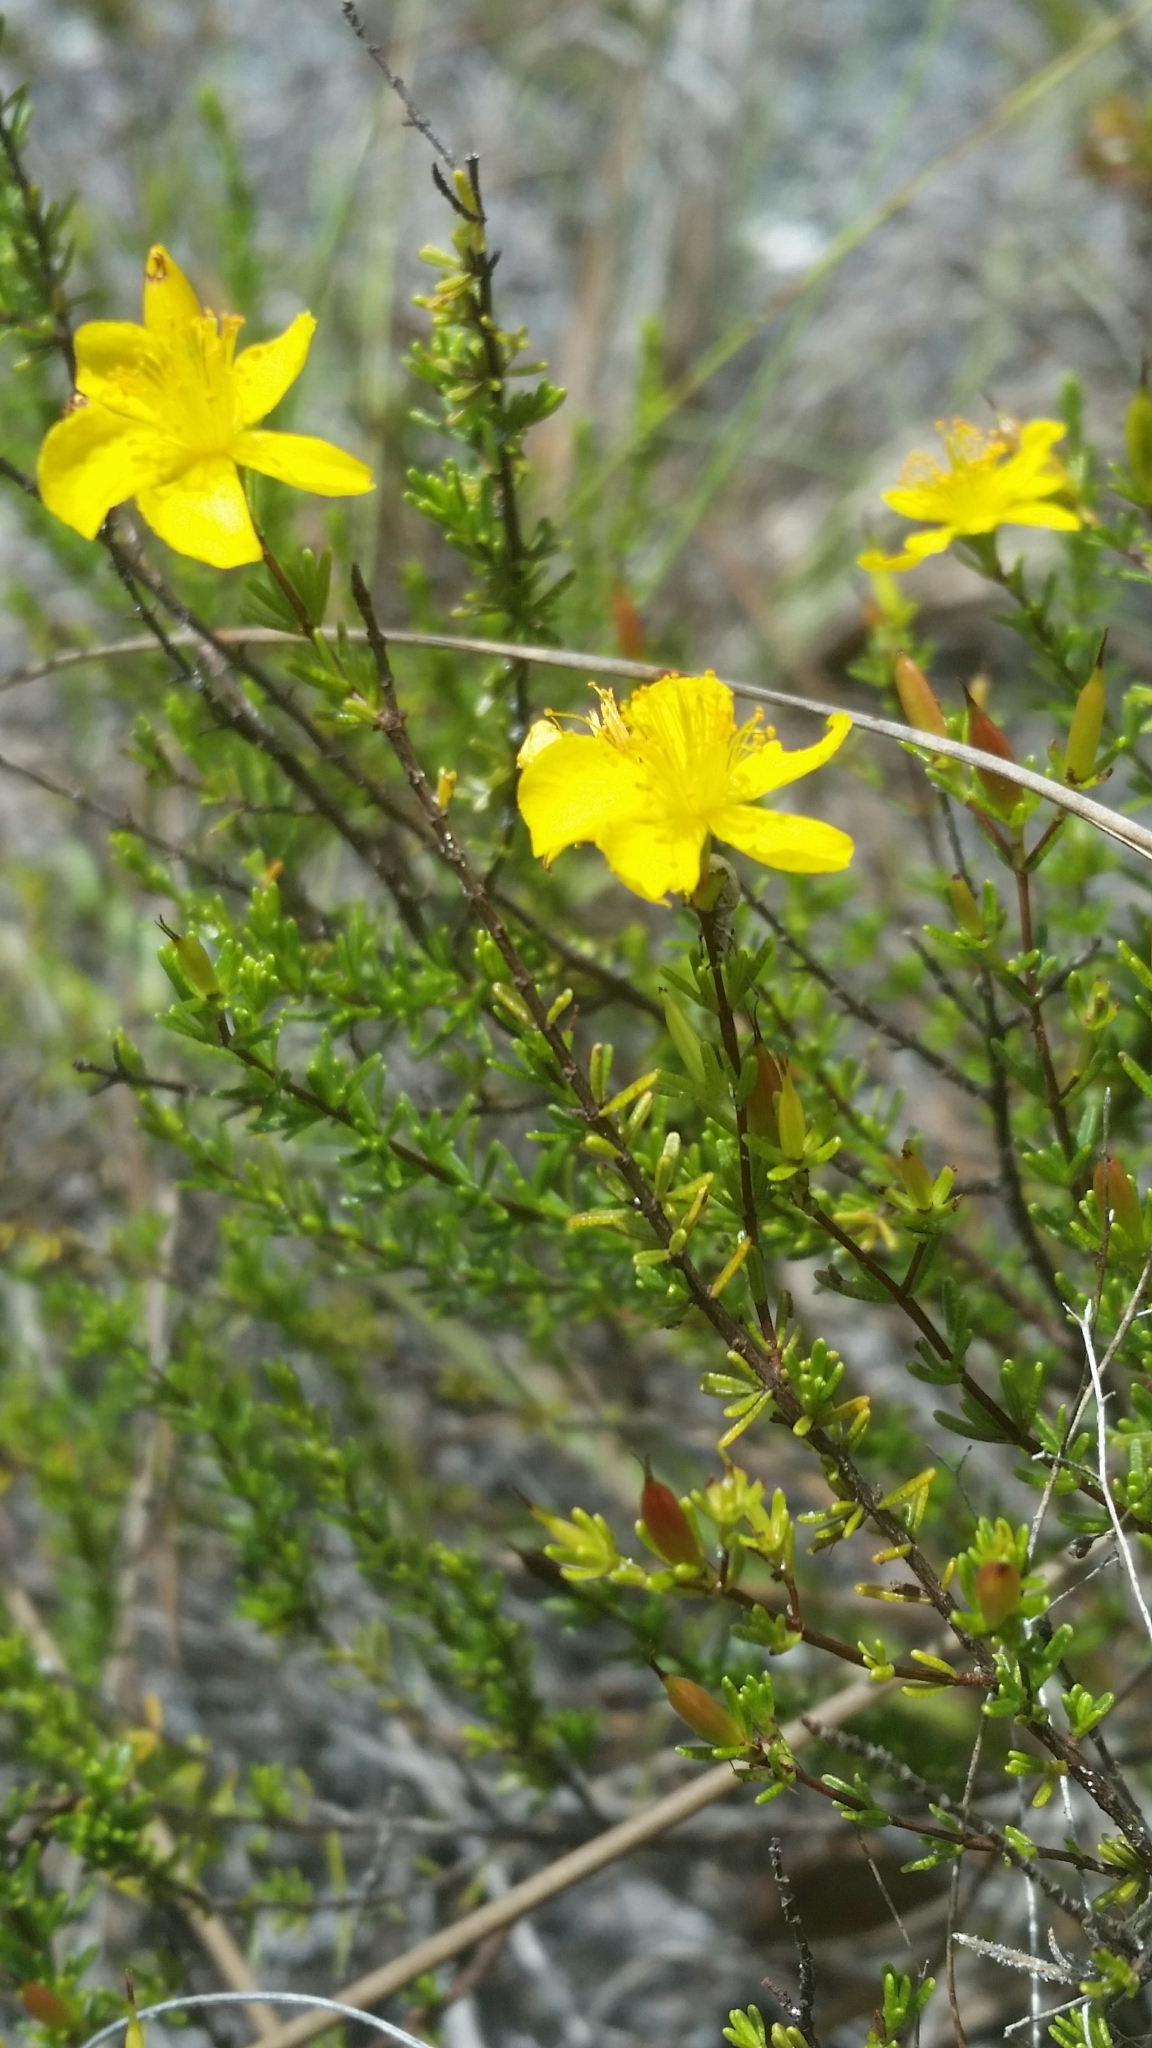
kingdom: Plantae
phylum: Tracheophyta
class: Magnoliopsida
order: Malpighiales
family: Hypericaceae
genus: Hypericum
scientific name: Hypericum tenuifolium
